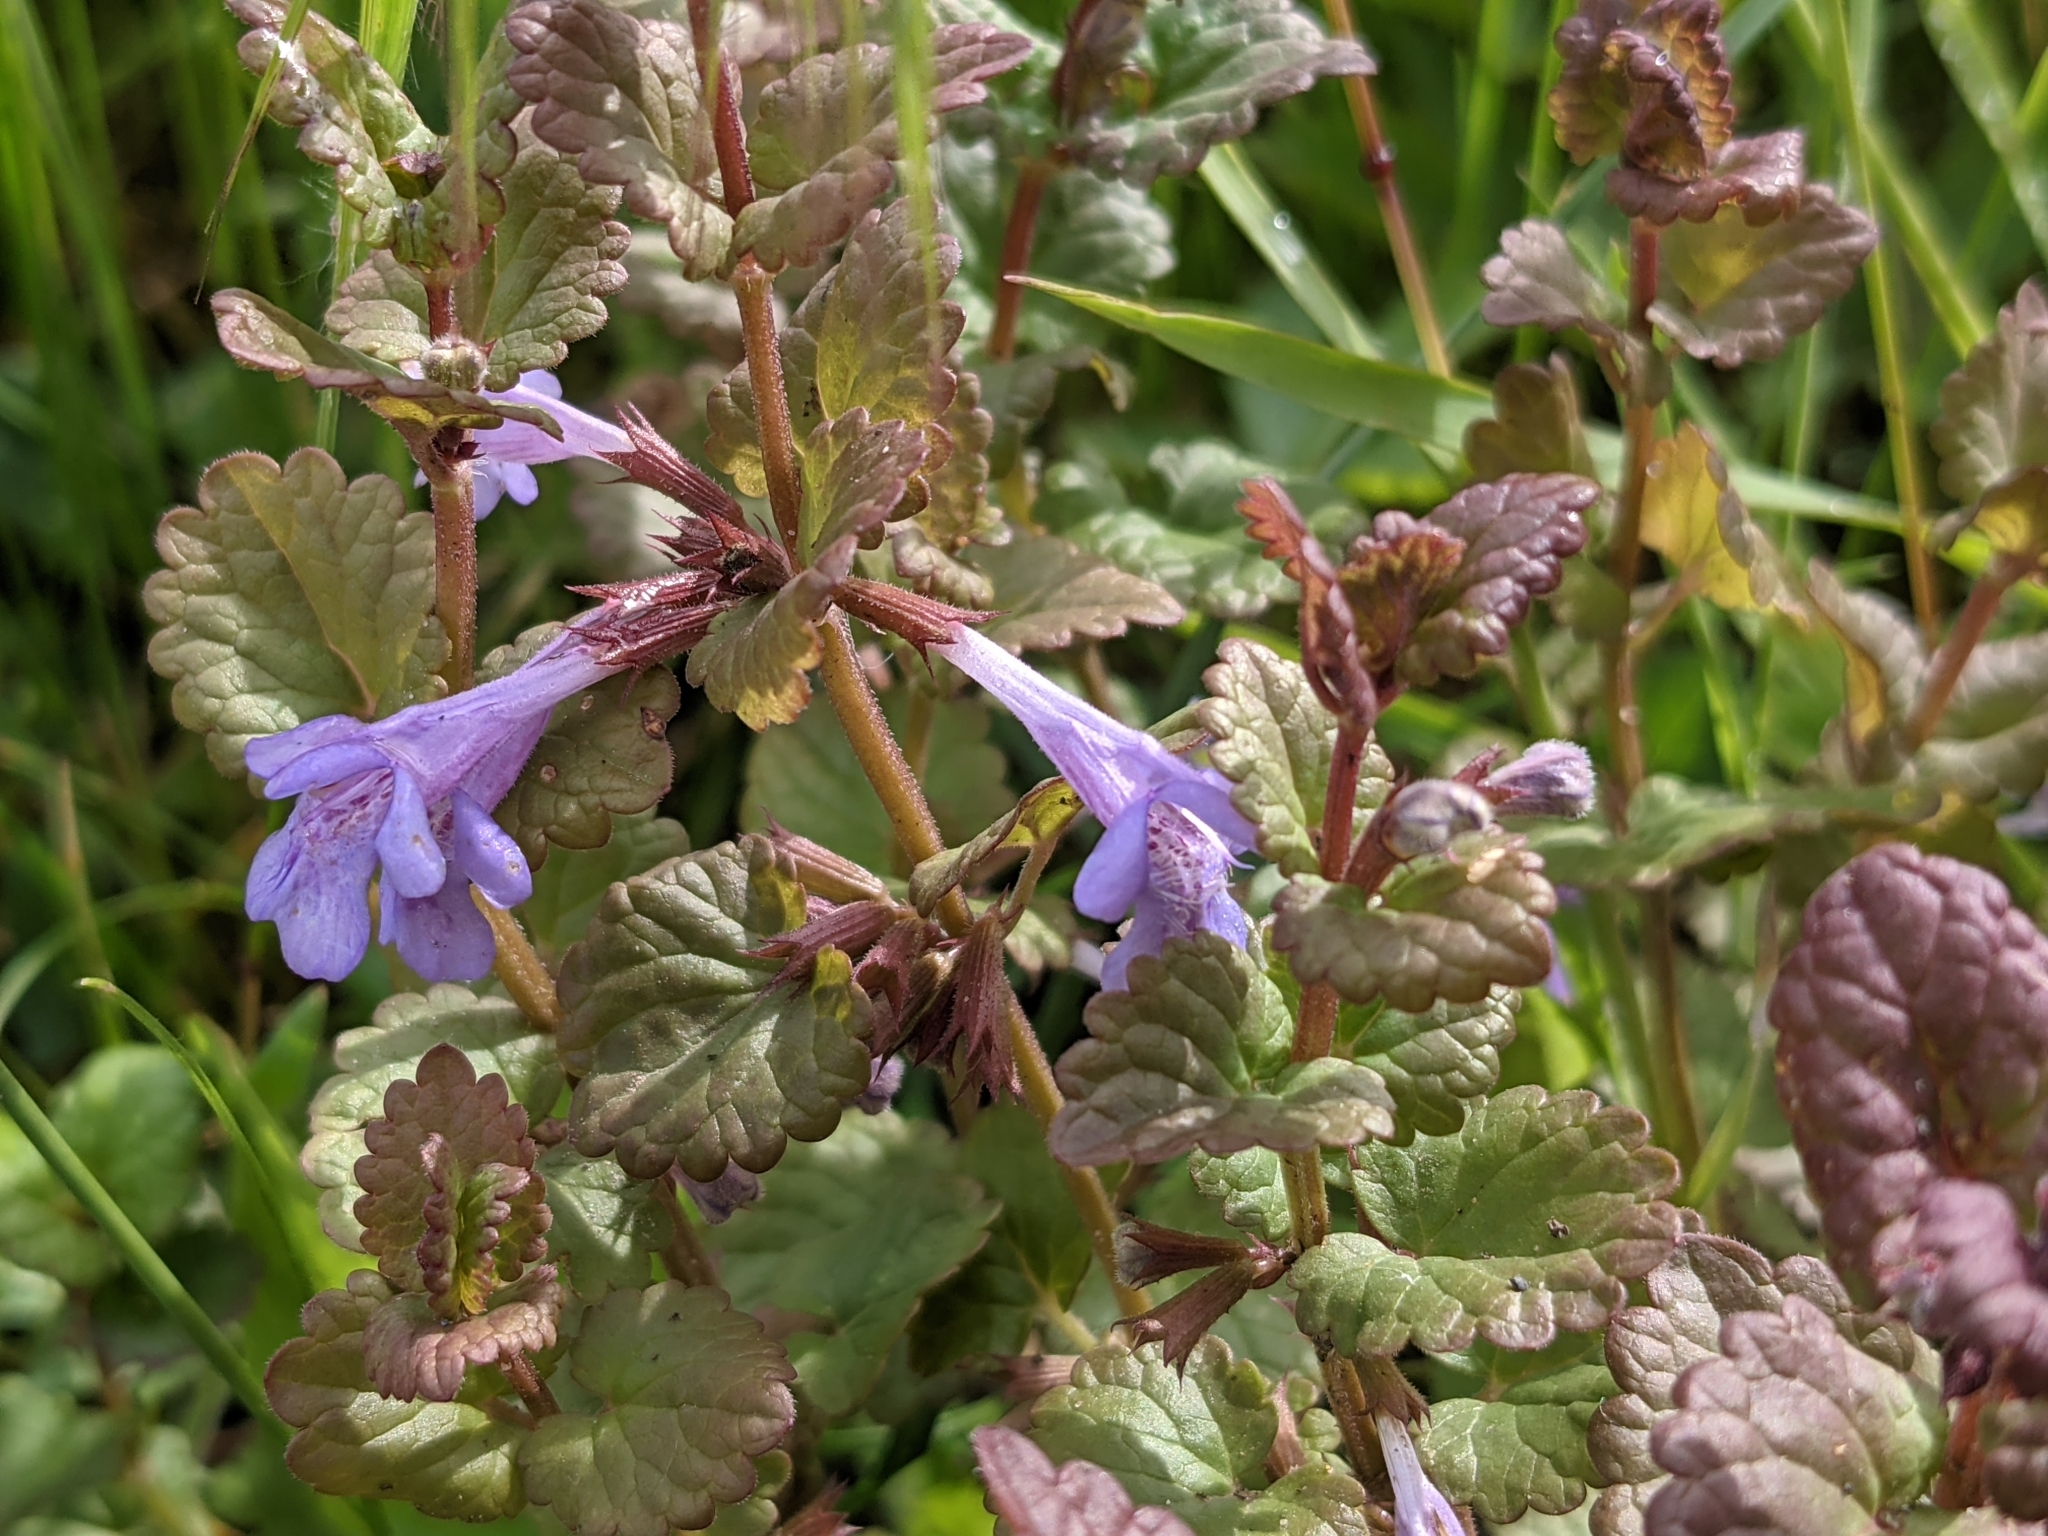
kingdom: Plantae
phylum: Tracheophyta
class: Magnoliopsida
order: Lamiales
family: Lamiaceae
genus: Glechoma
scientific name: Glechoma hederacea
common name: Ground ivy
